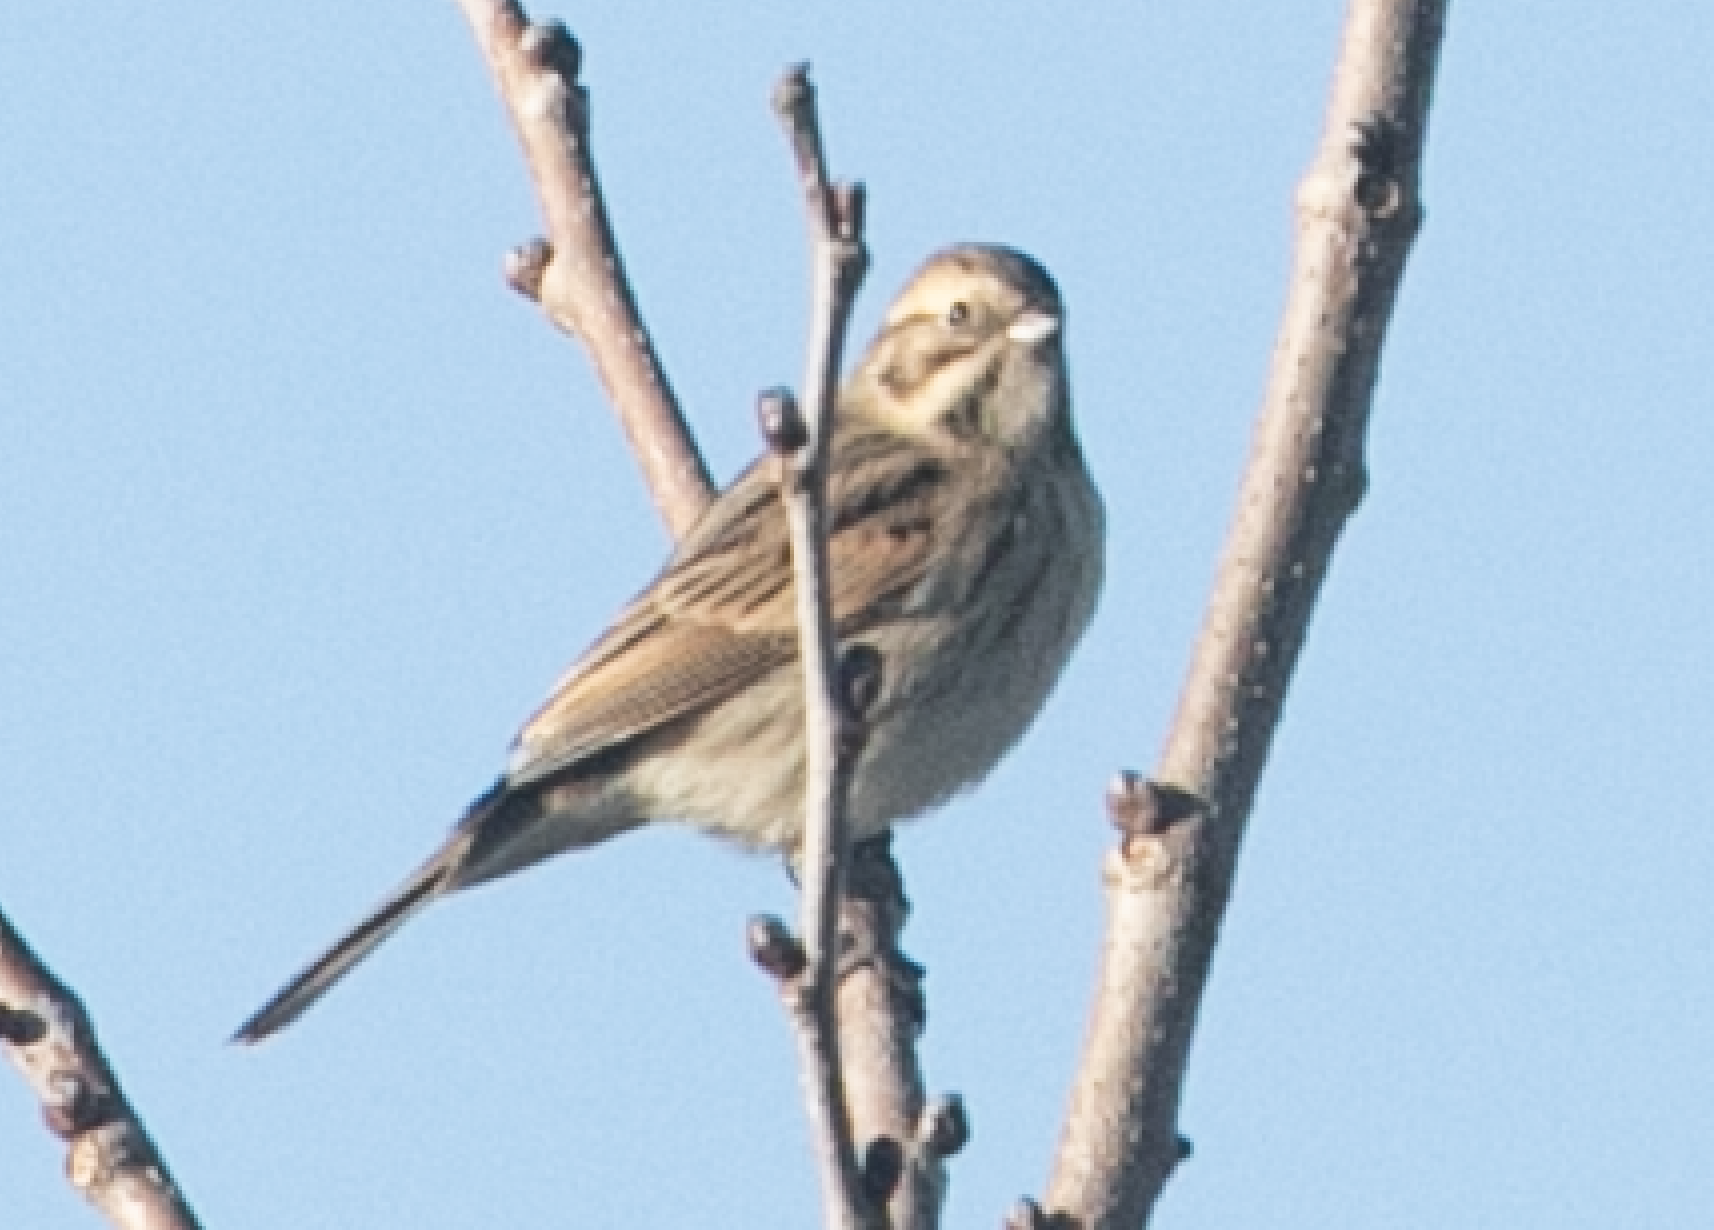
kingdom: Animalia
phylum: Chordata
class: Aves
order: Passeriformes
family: Emberizidae
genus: Emberiza
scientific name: Emberiza schoeniclus
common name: Reed bunting
